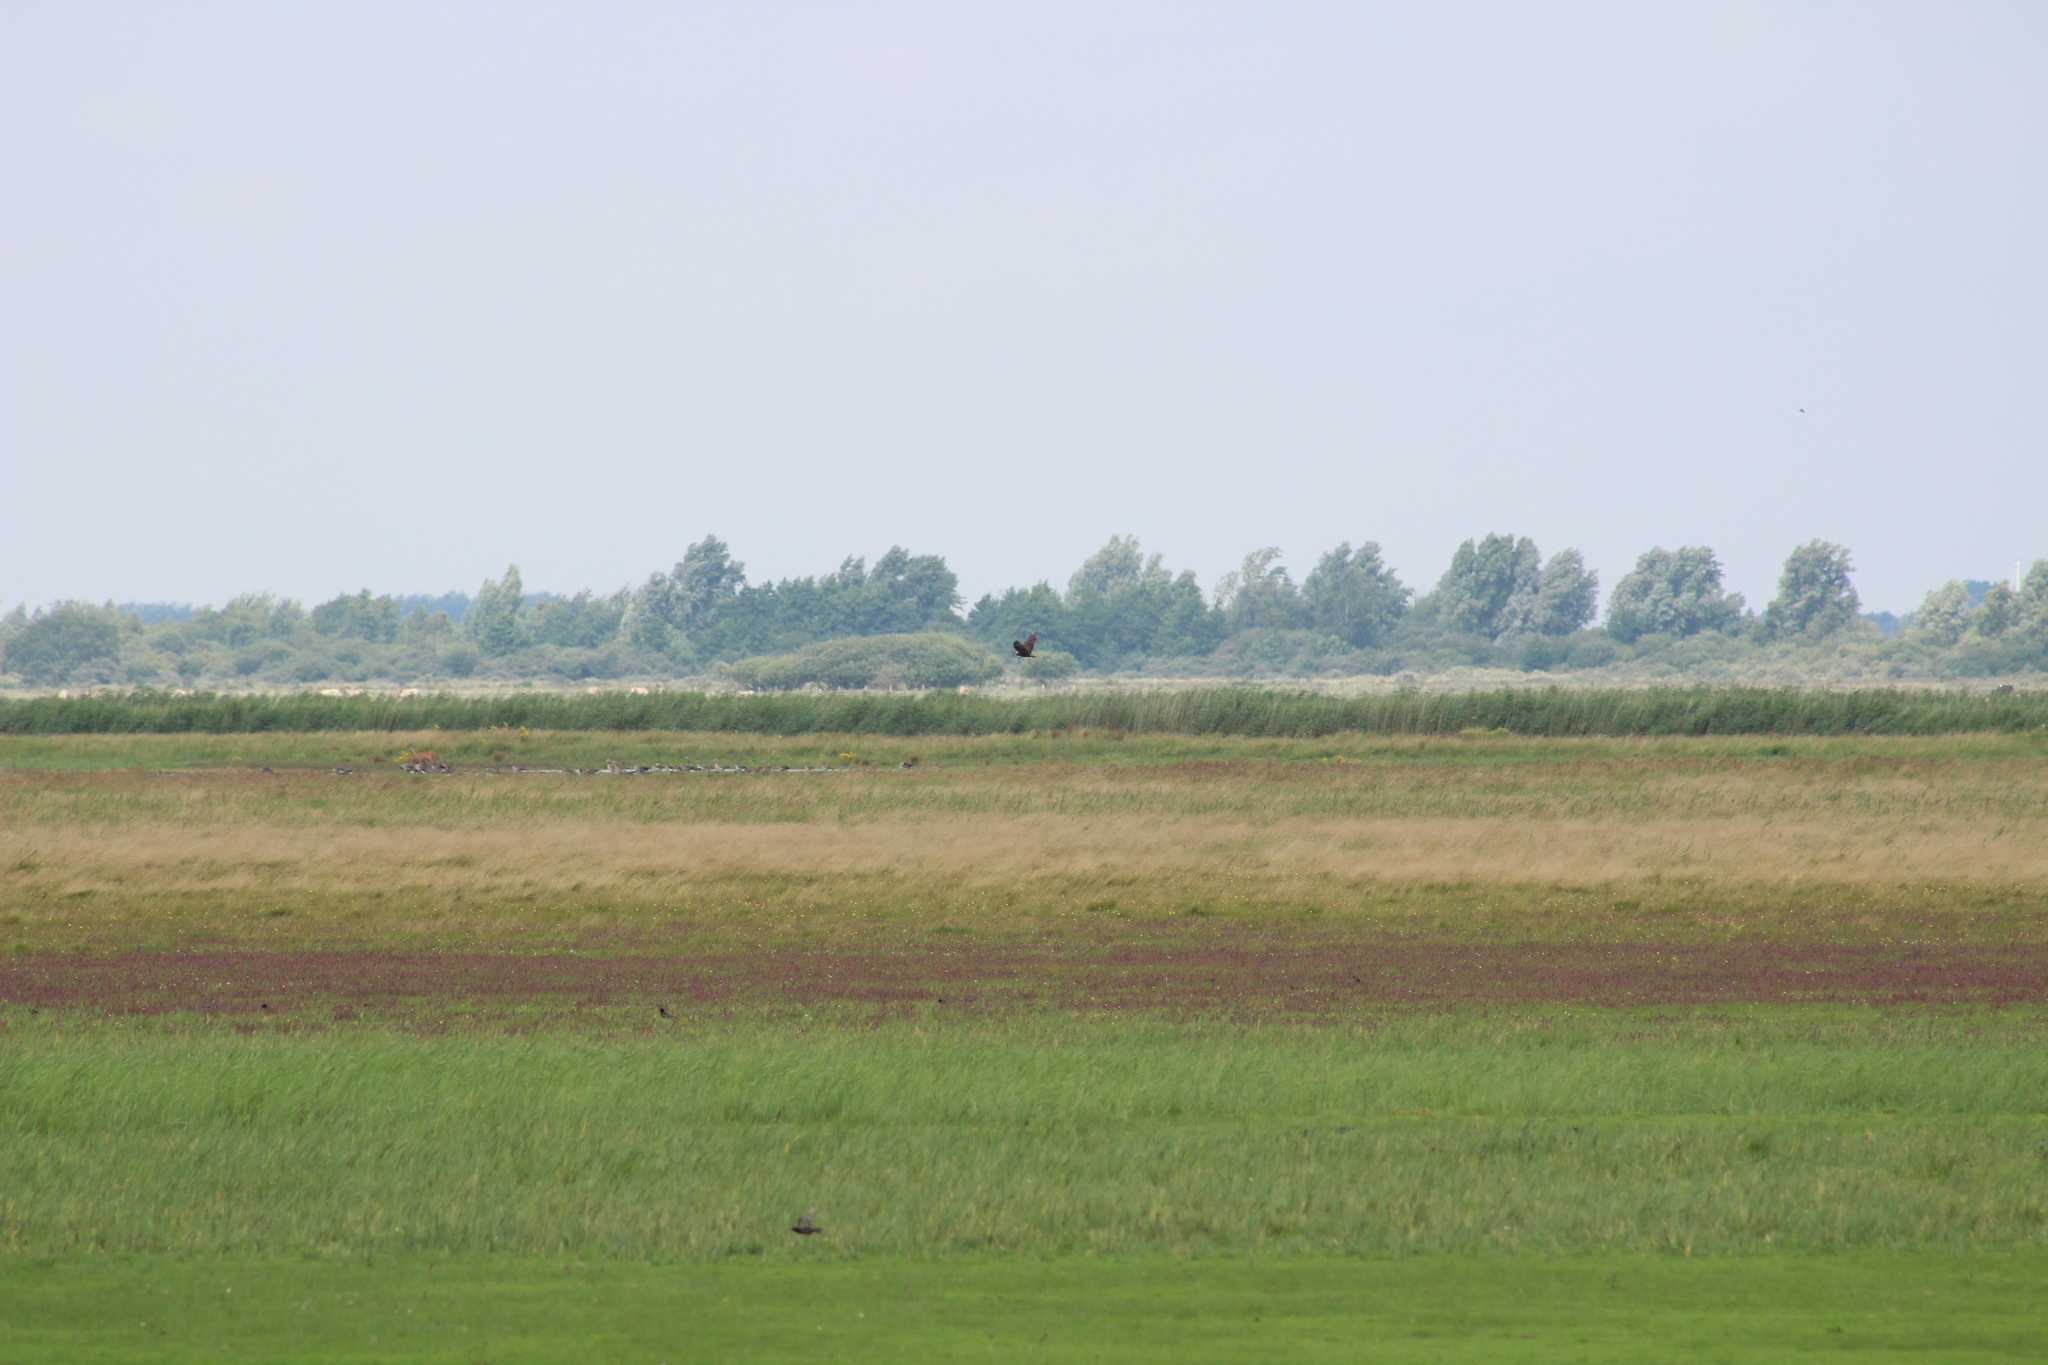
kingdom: Animalia
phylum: Chordata
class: Aves
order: Accipitriformes
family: Accipitridae
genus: Circus
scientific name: Circus aeruginosus
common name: Western marsh harrier
